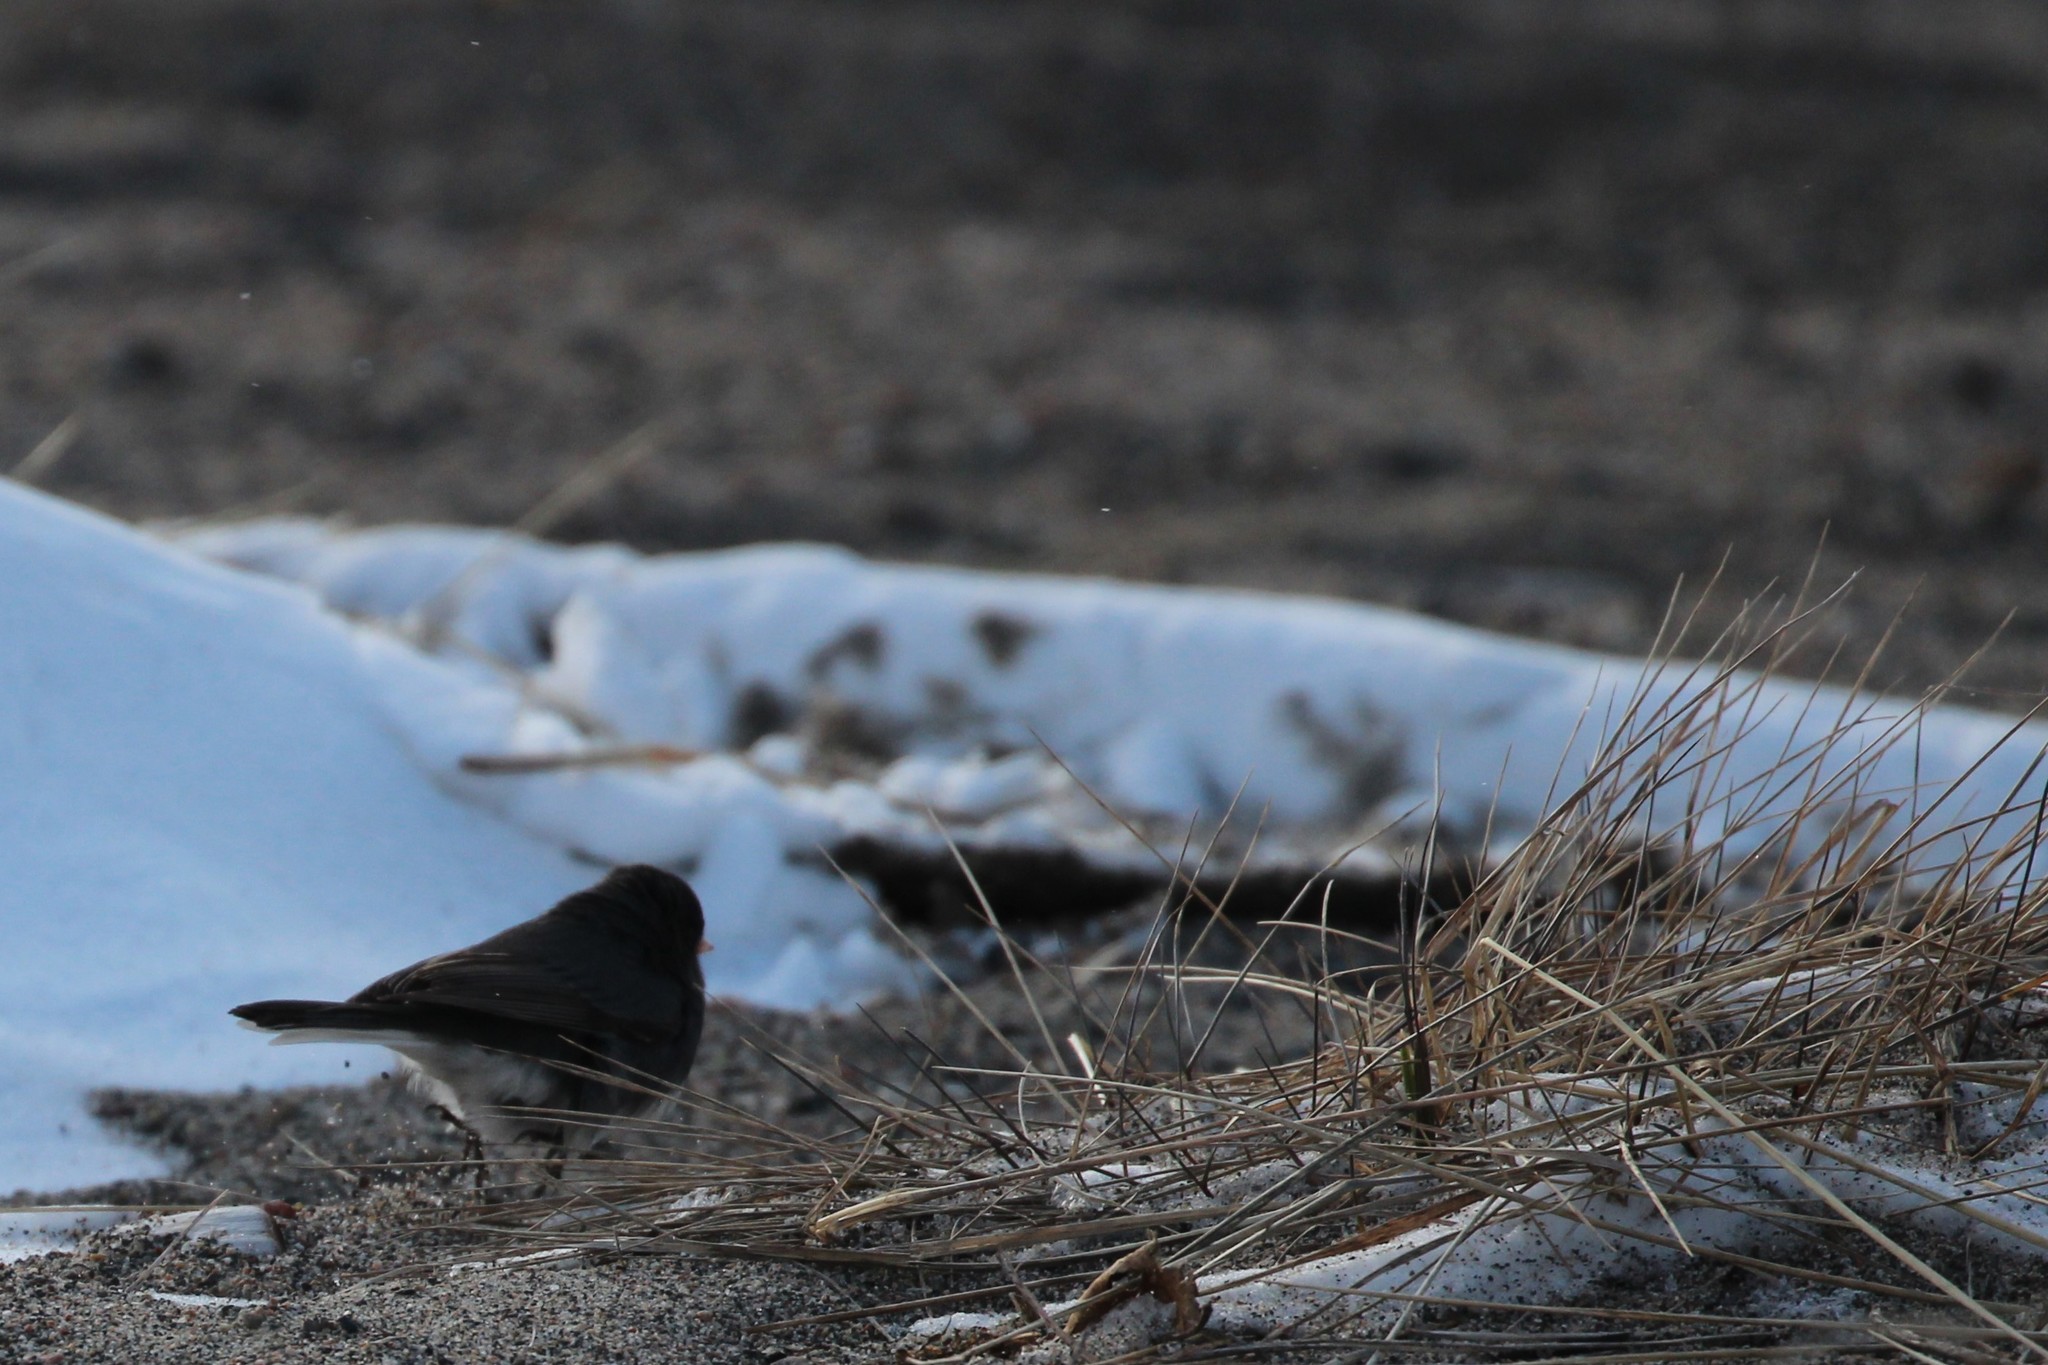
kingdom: Animalia
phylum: Chordata
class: Aves
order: Passeriformes
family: Passerellidae
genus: Junco
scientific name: Junco hyemalis
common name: Dark-eyed junco
